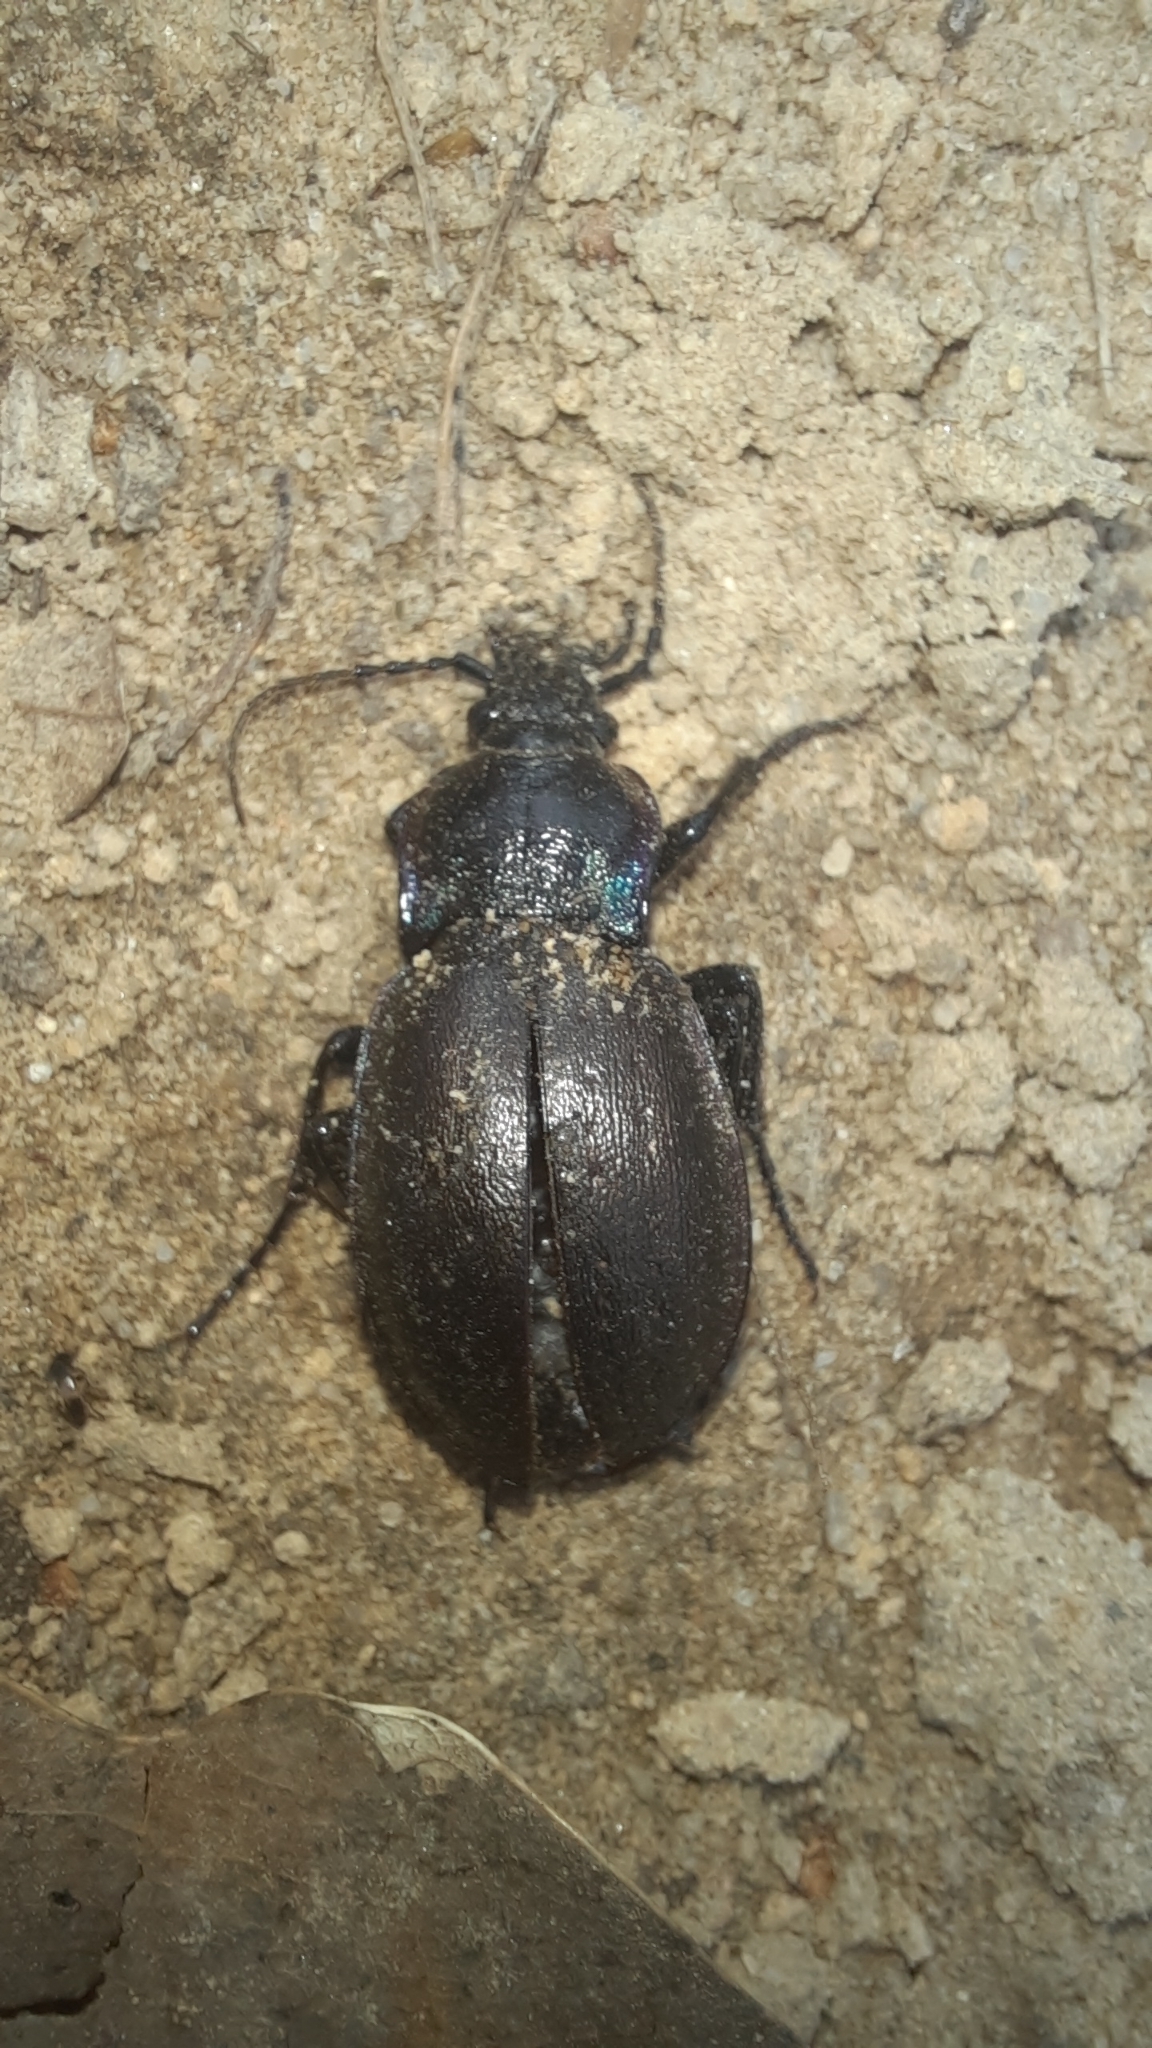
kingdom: Animalia
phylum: Arthropoda
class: Insecta
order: Coleoptera
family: Carabidae
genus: Carabus
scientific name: Carabus nemoralis
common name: European ground beetle
